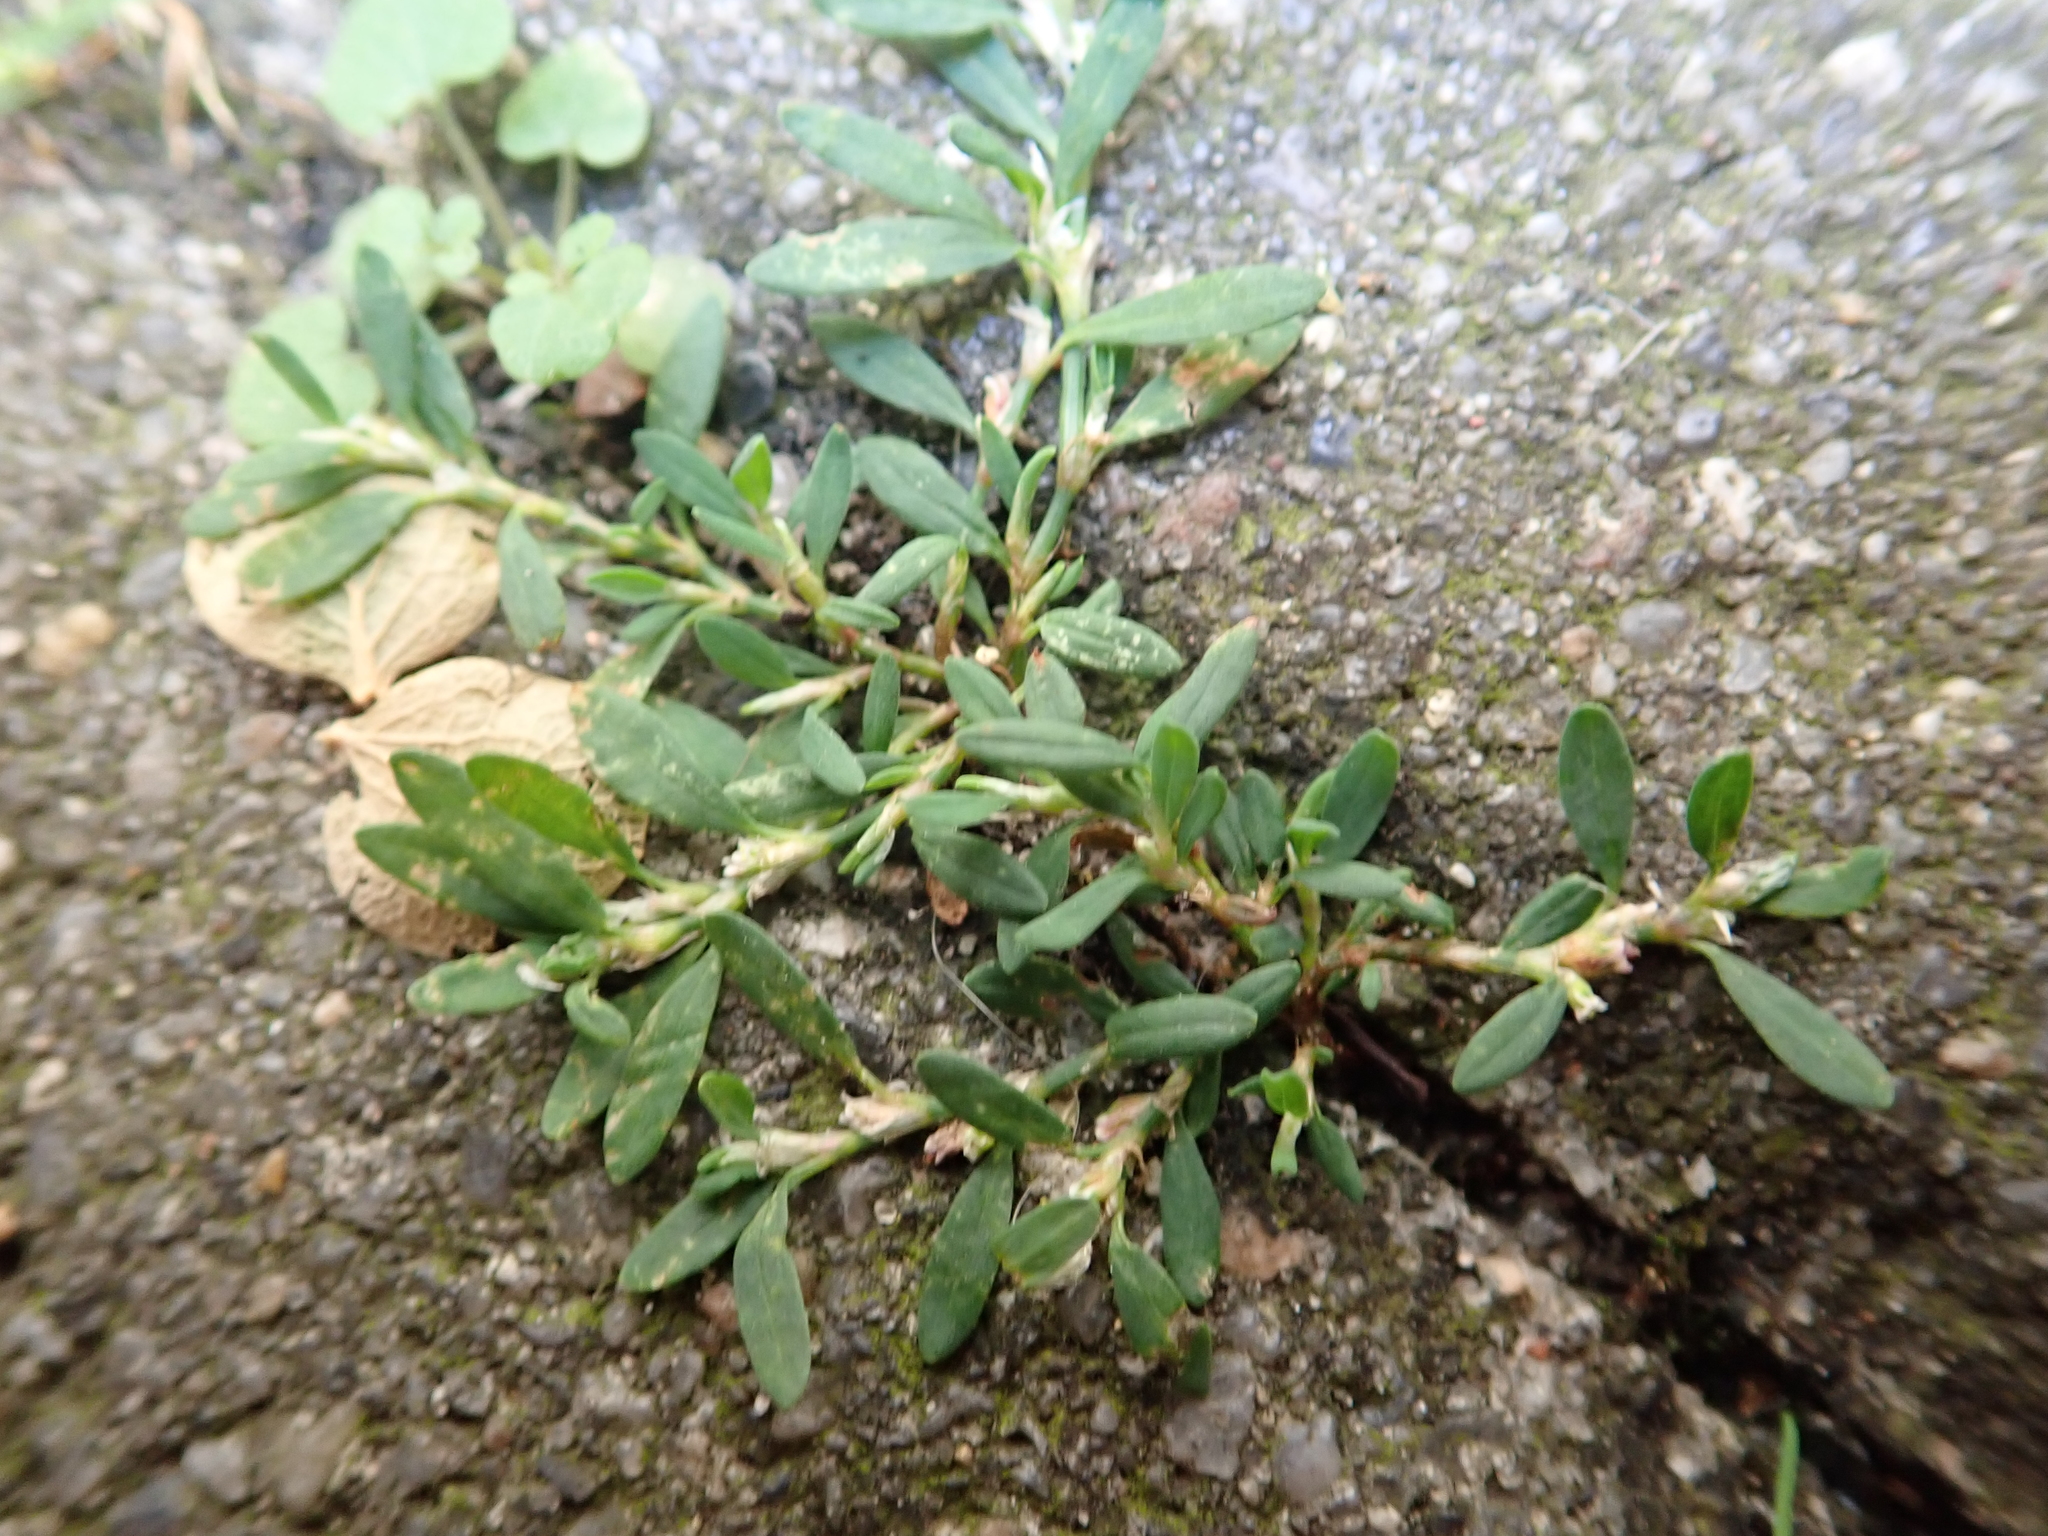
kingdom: Plantae
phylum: Tracheophyta
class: Magnoliopsida
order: Caryophyllales
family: Polygonaceae
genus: Polygonum
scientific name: Polygonum aviculare
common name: Prostrate knotweed
